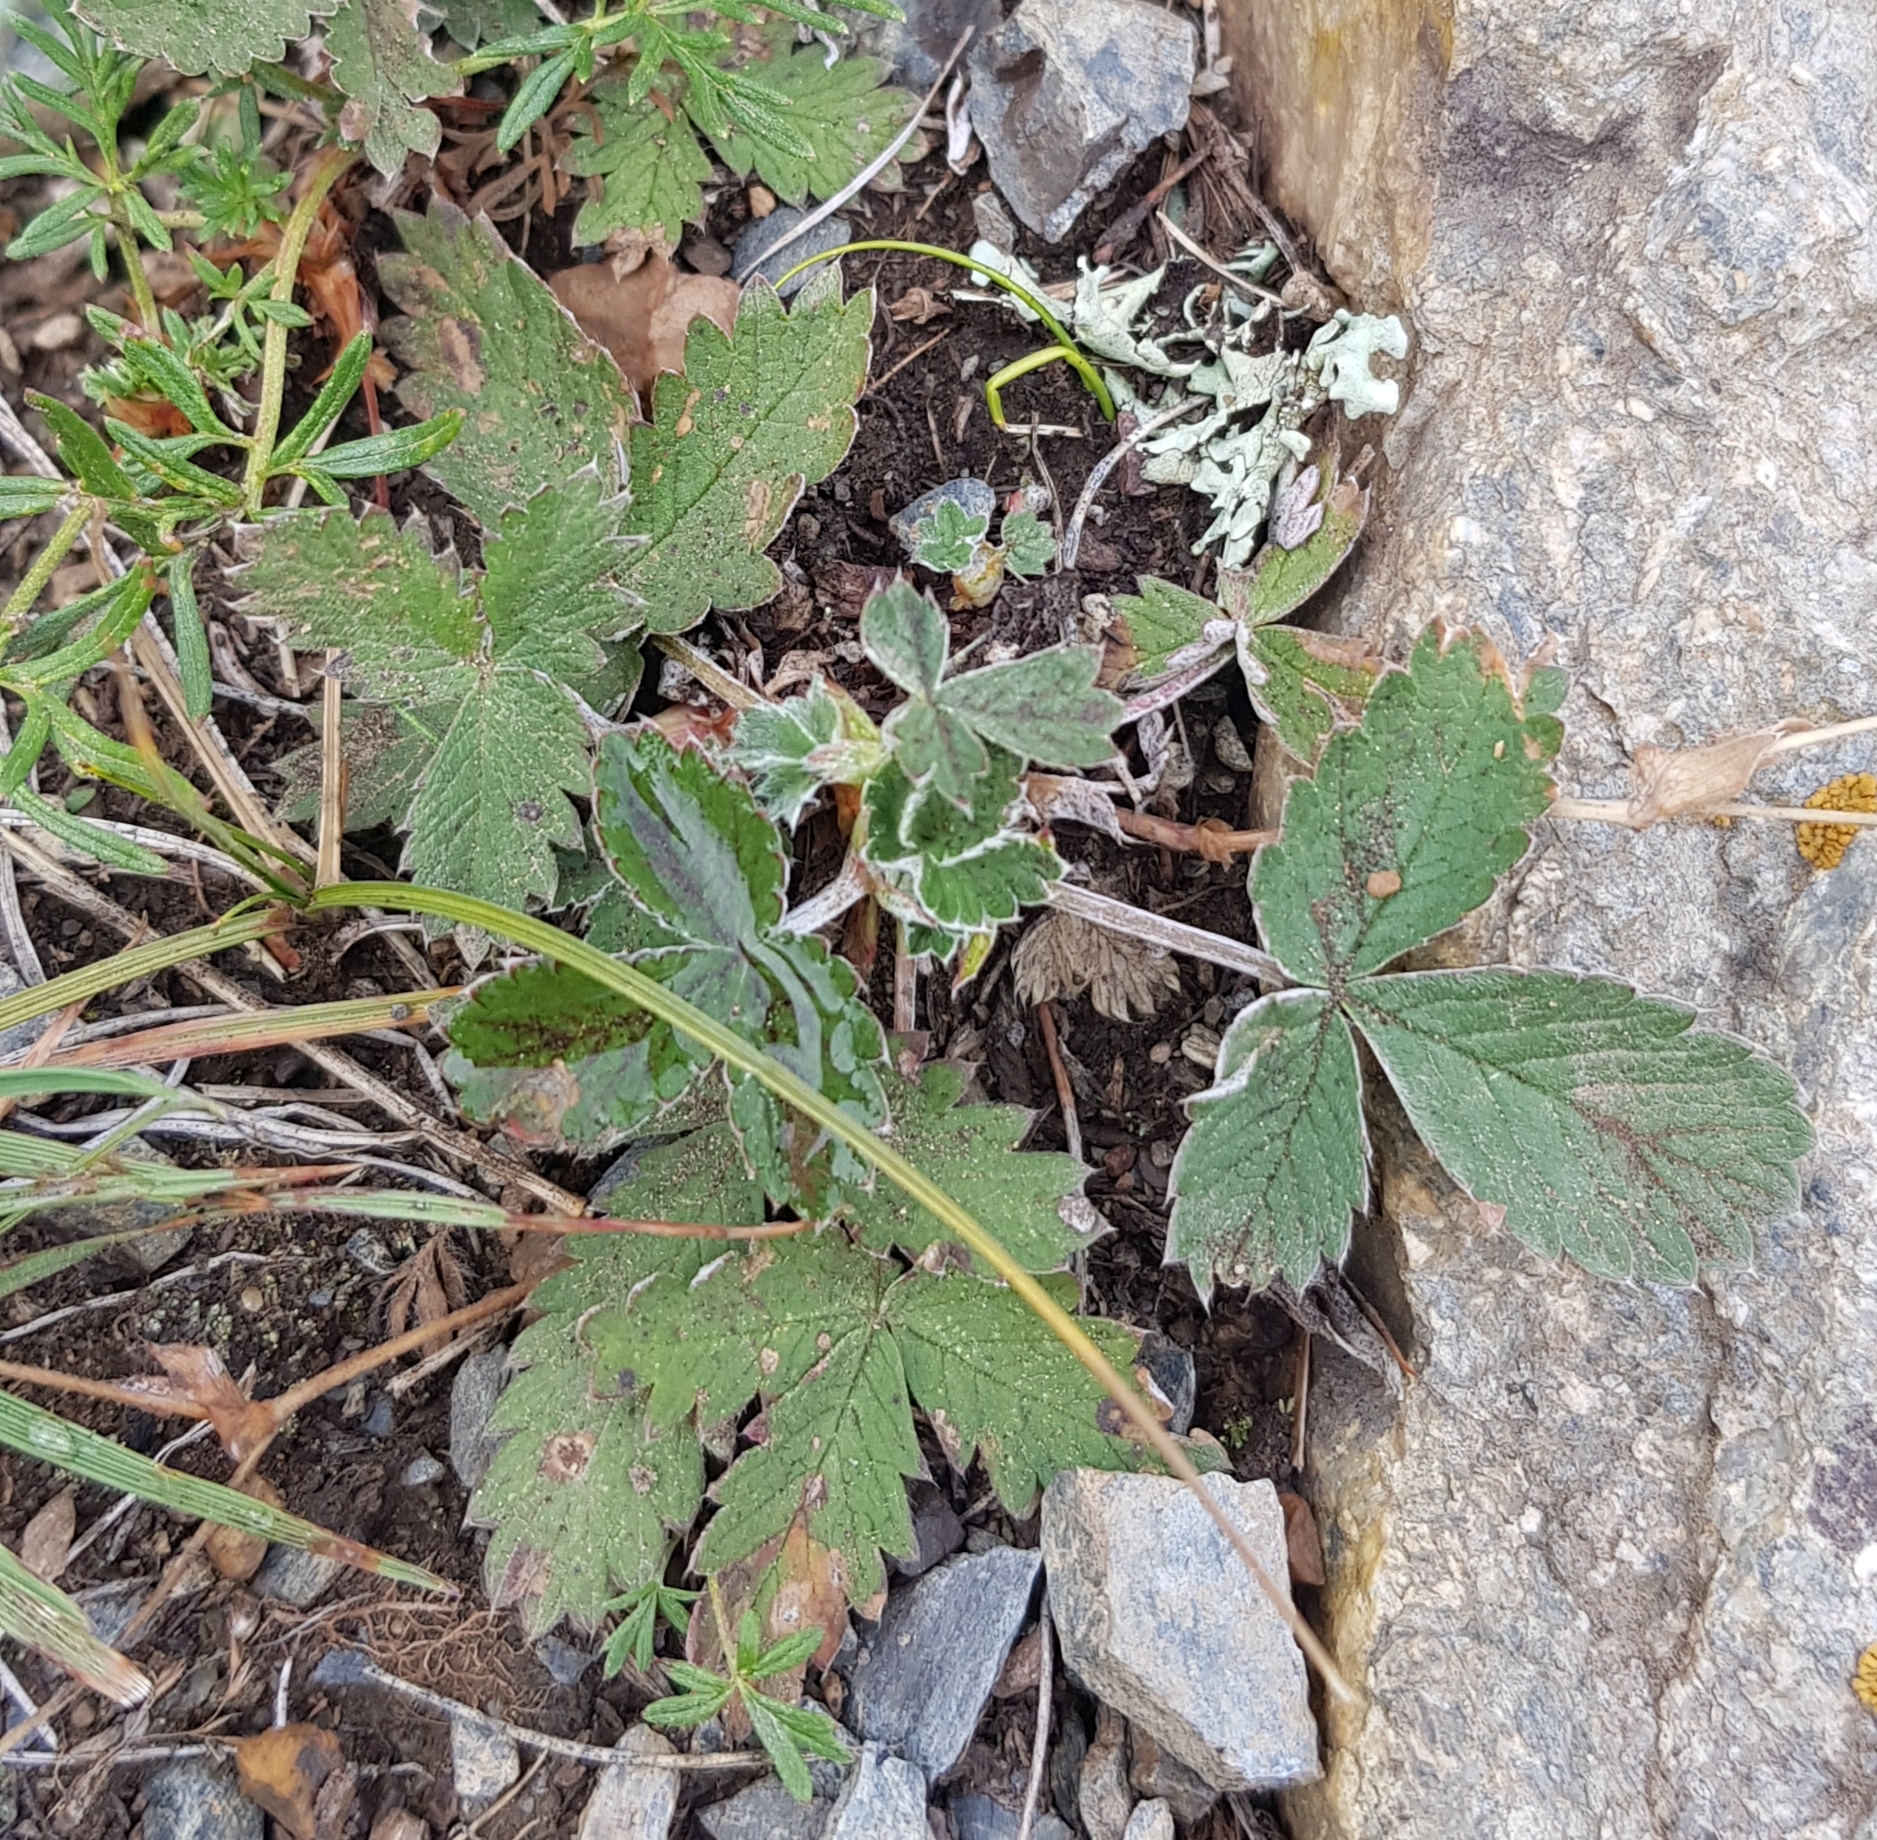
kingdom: Plantae
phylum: Tracheophyta
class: Magnoliopsida
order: Rosales
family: Rosaceae
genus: Potentilla
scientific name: Potentilla nivea
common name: Snow cinquefoil
